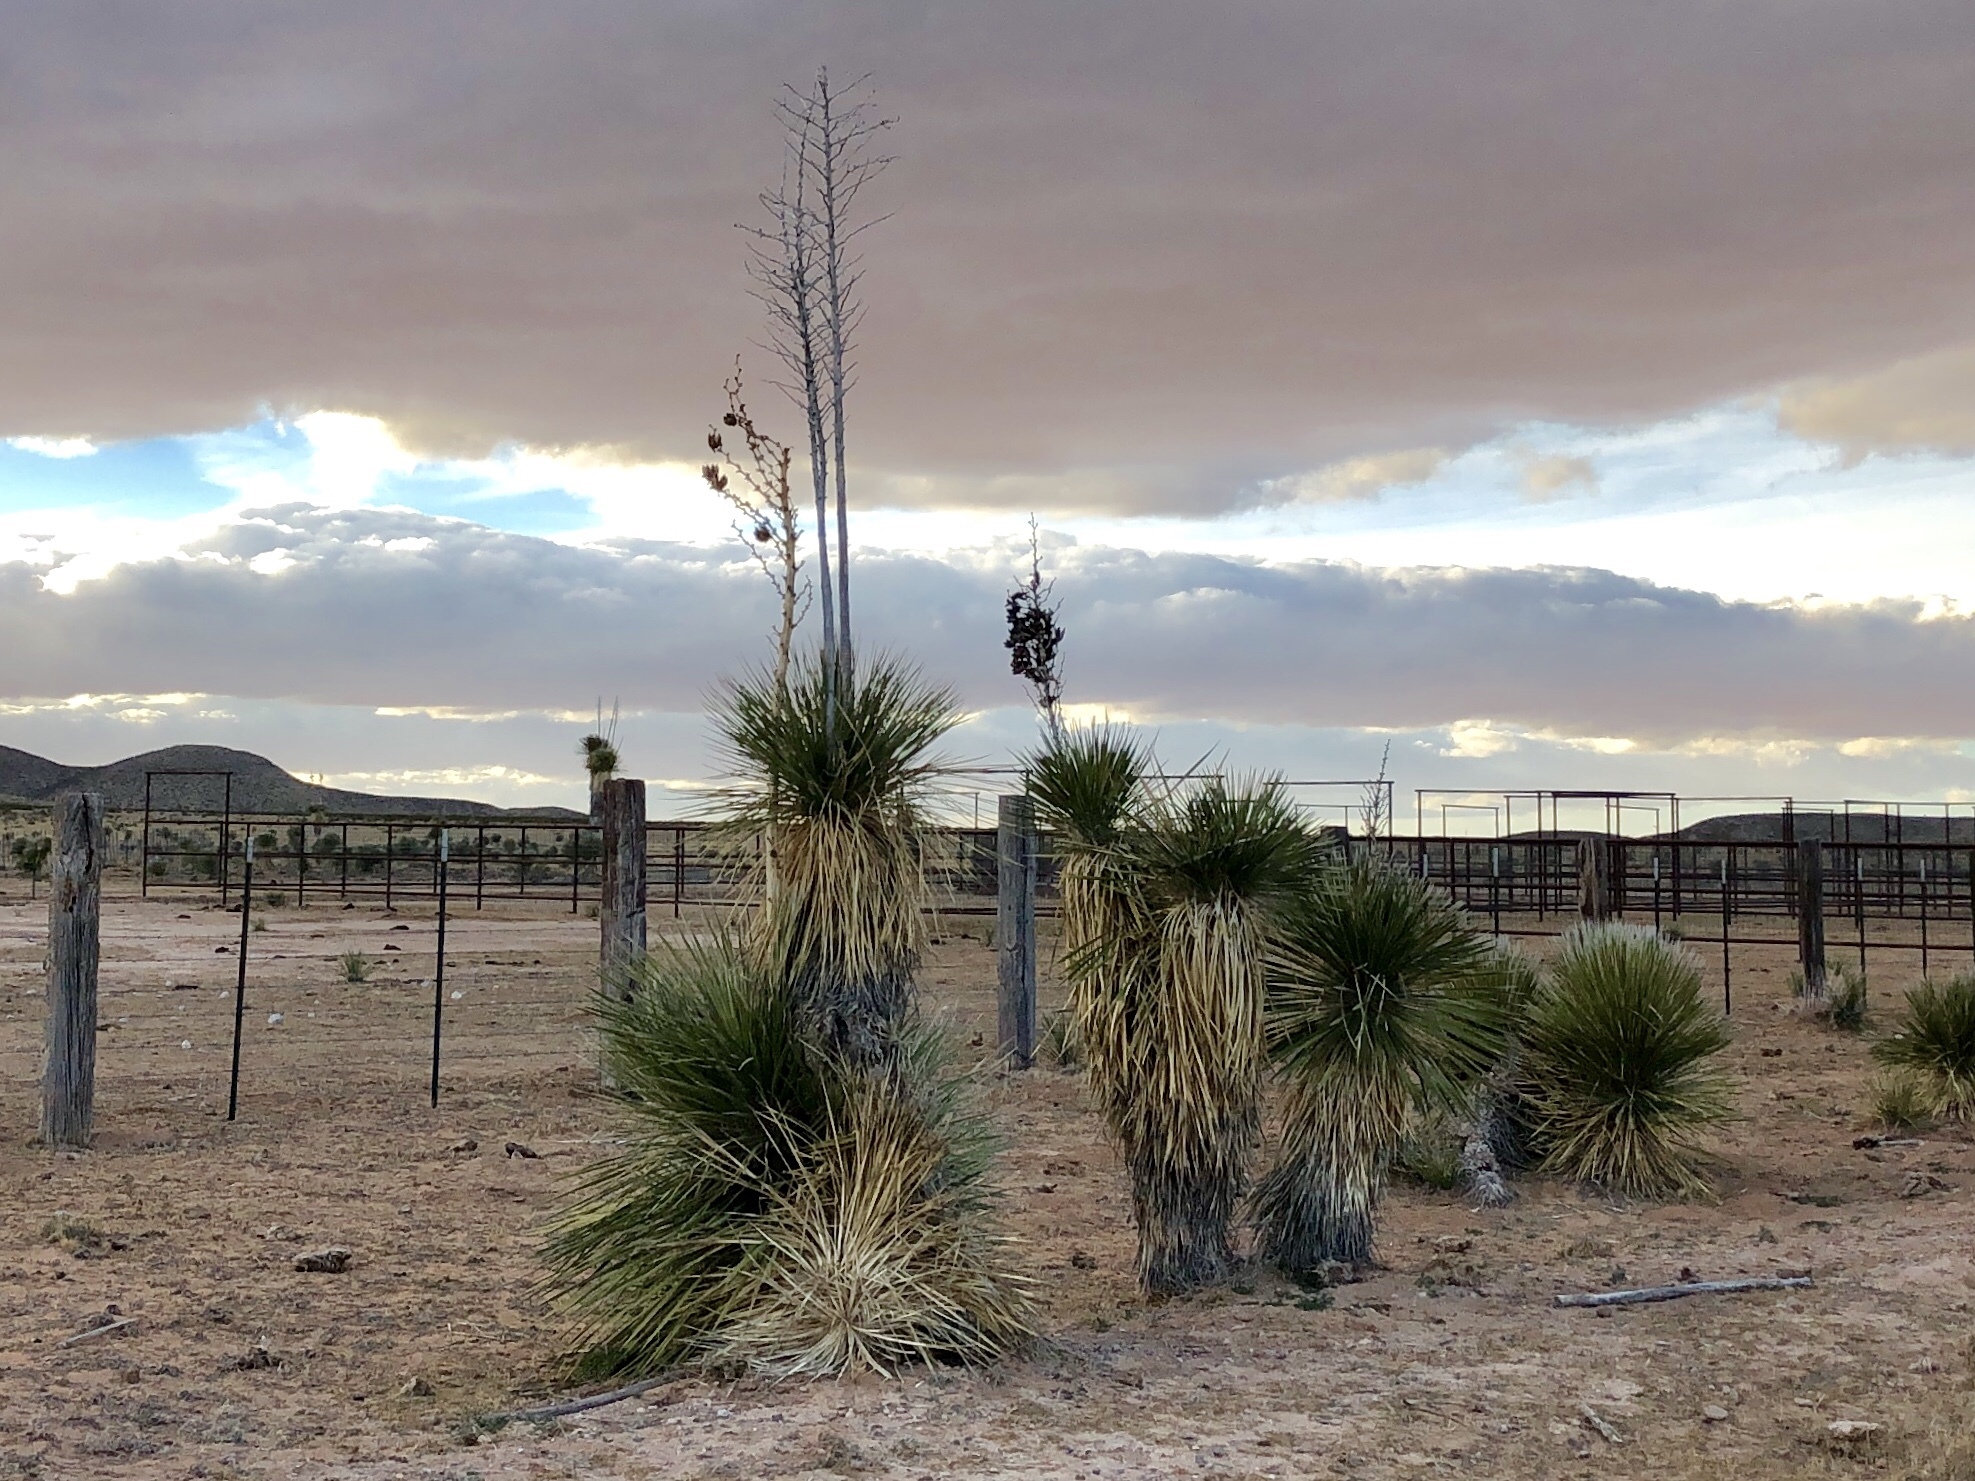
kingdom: Plantae
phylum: Tracheophyta
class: Liliopsida
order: Asparagales
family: Asparagaceae
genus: Yucca
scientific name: Yucca elata
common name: Palmella
